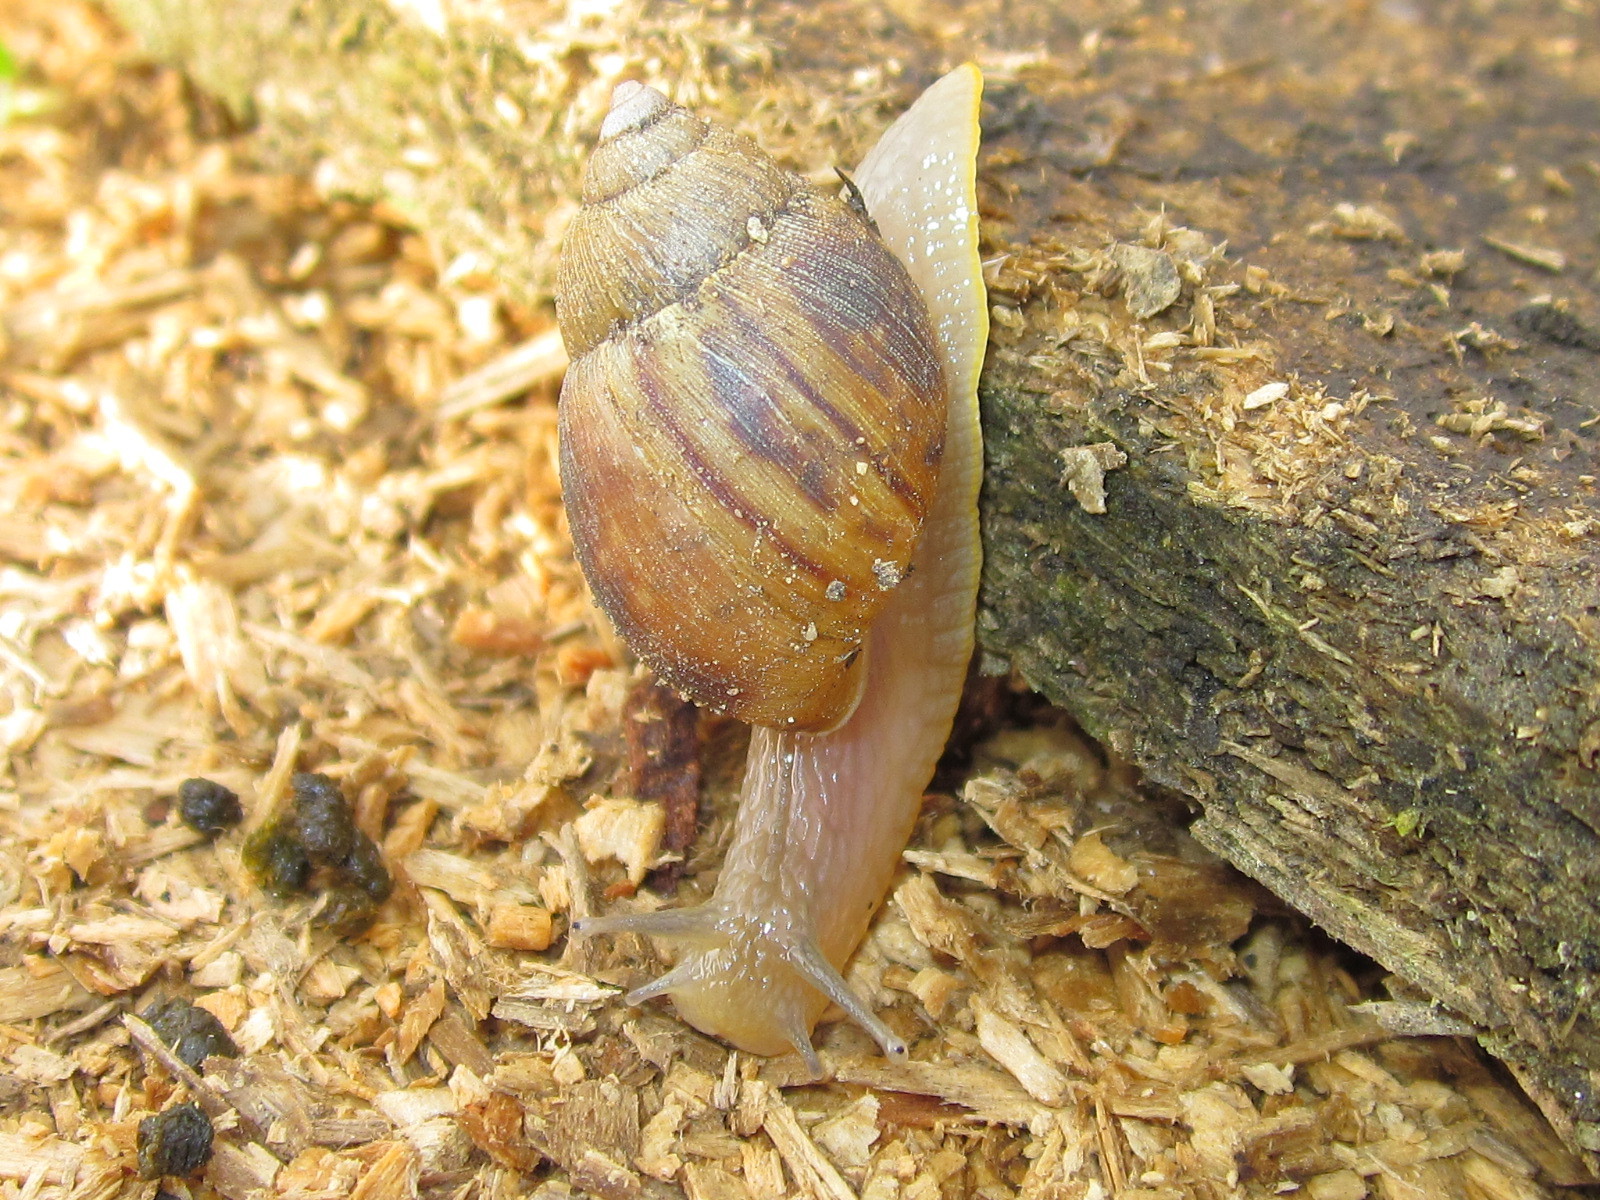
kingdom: Animalia
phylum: Mollusca
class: Gastropoda
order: Stylommatophora
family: Bothriembryontidae
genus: Plectostylus
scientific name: Plectostylus chilensis
